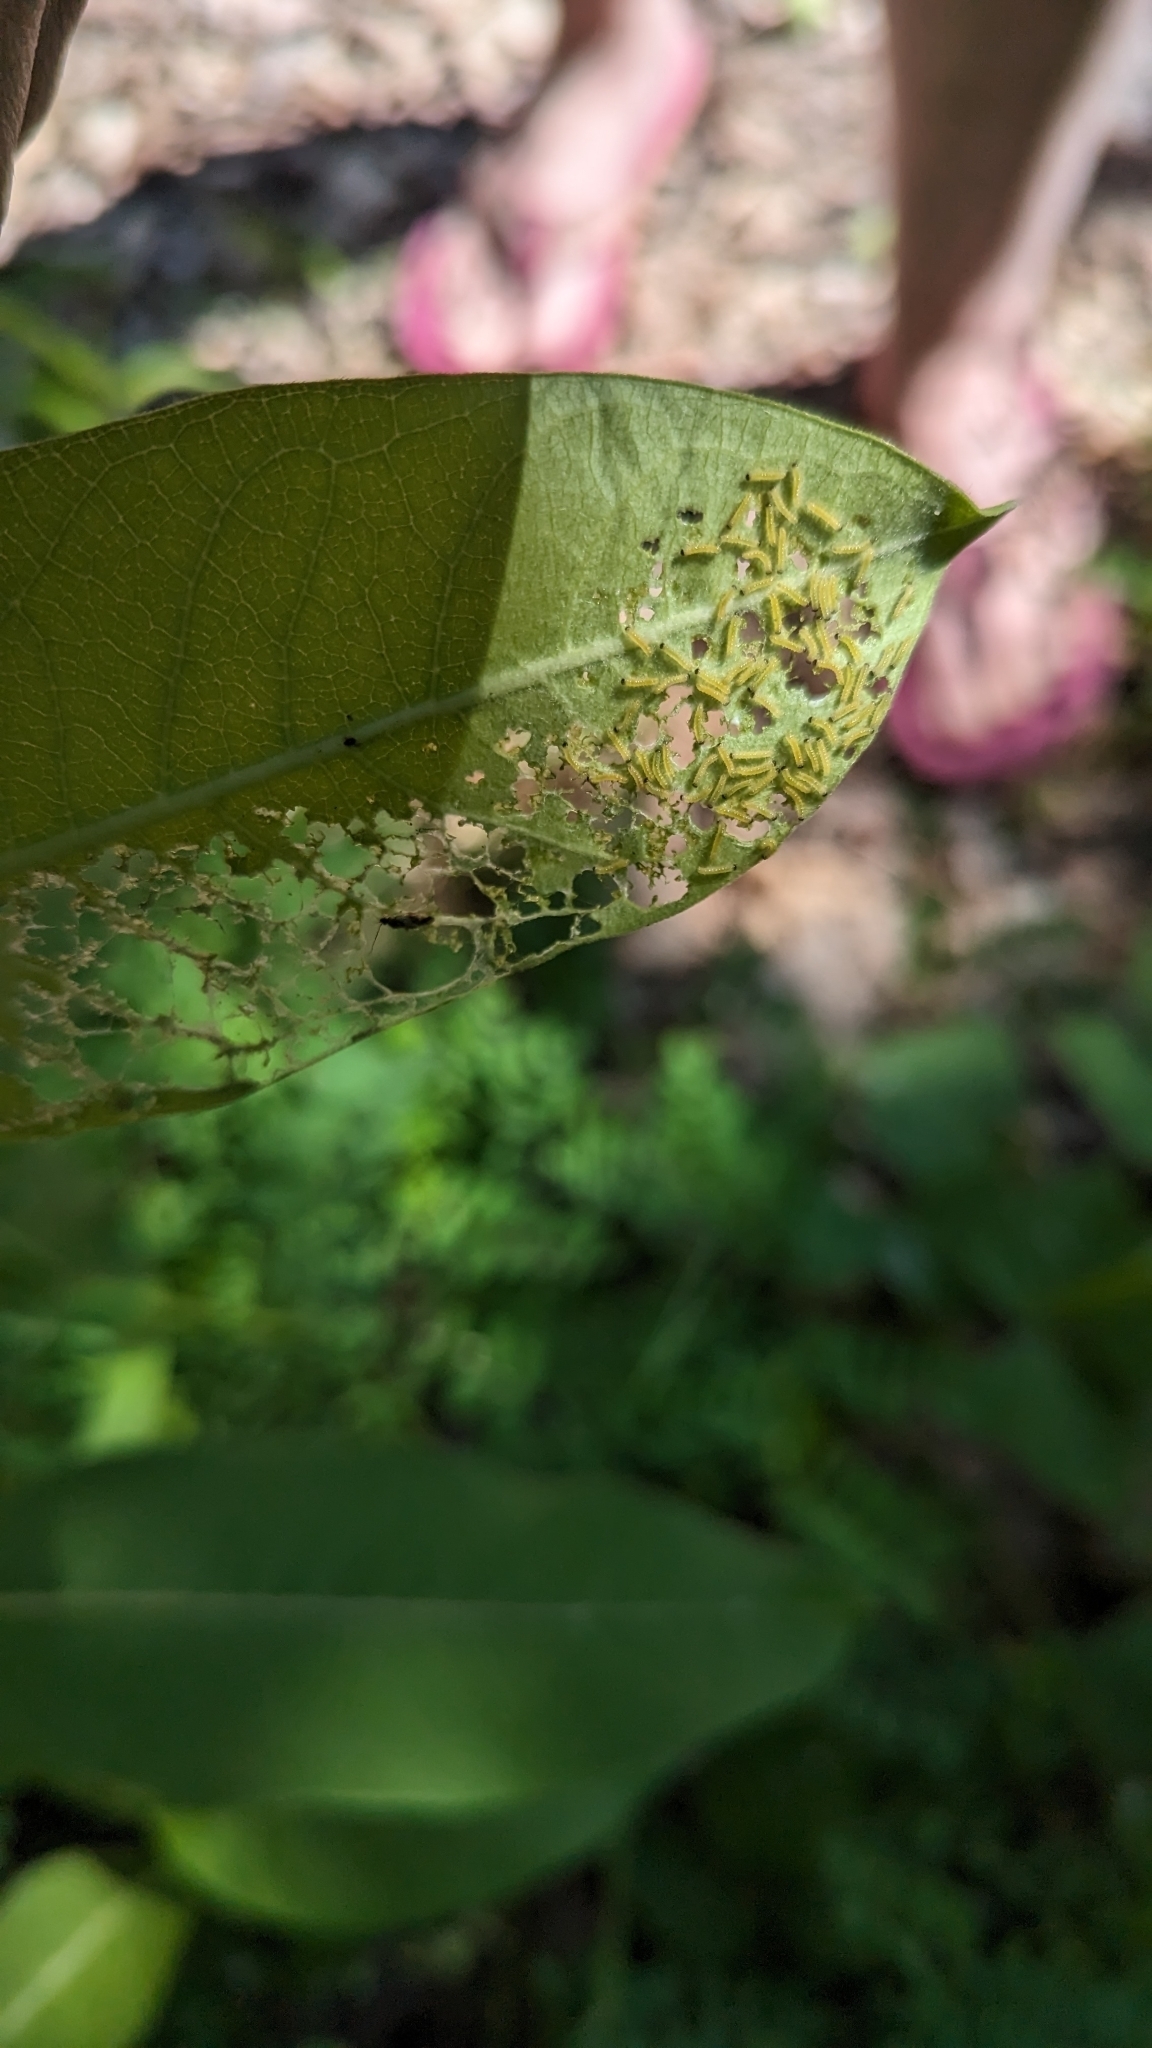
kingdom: Animalia
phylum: Arthropoda
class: Insecta
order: Lepidoptera
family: Erebidae
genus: Euchaetes
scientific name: Euchaetes egle
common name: Milkweed tussock moth
